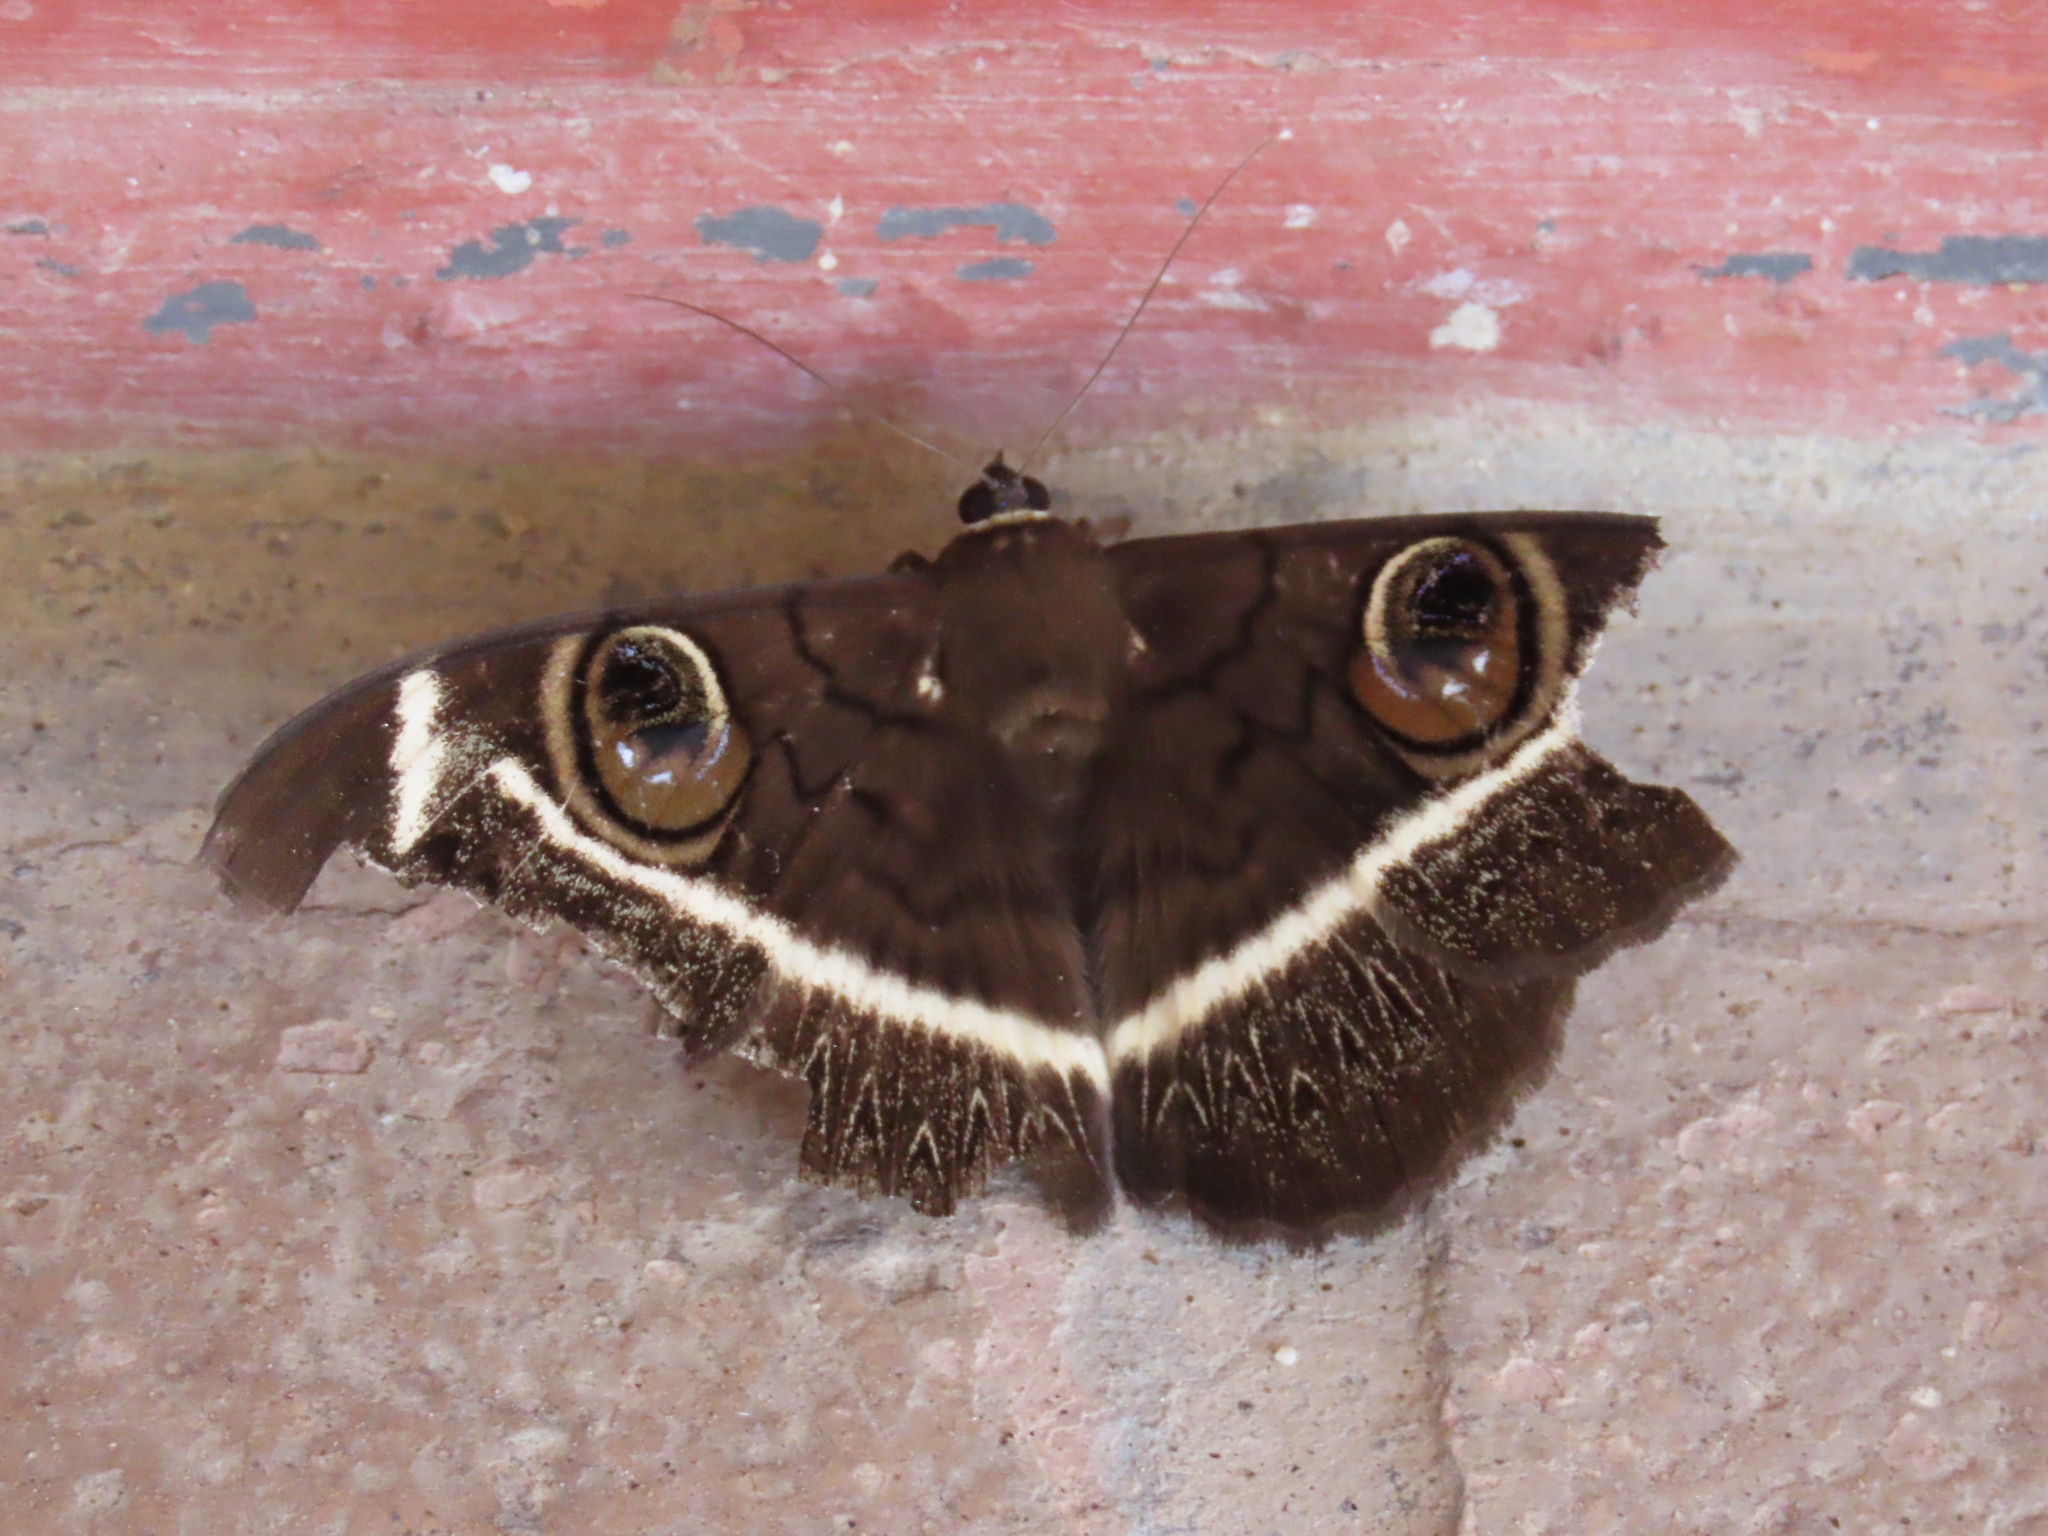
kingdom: Animalia
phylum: Arthropoda
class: Insecta
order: Lepidoptera
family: Erebidae
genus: Cyligramma
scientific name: Cyligramma latona
